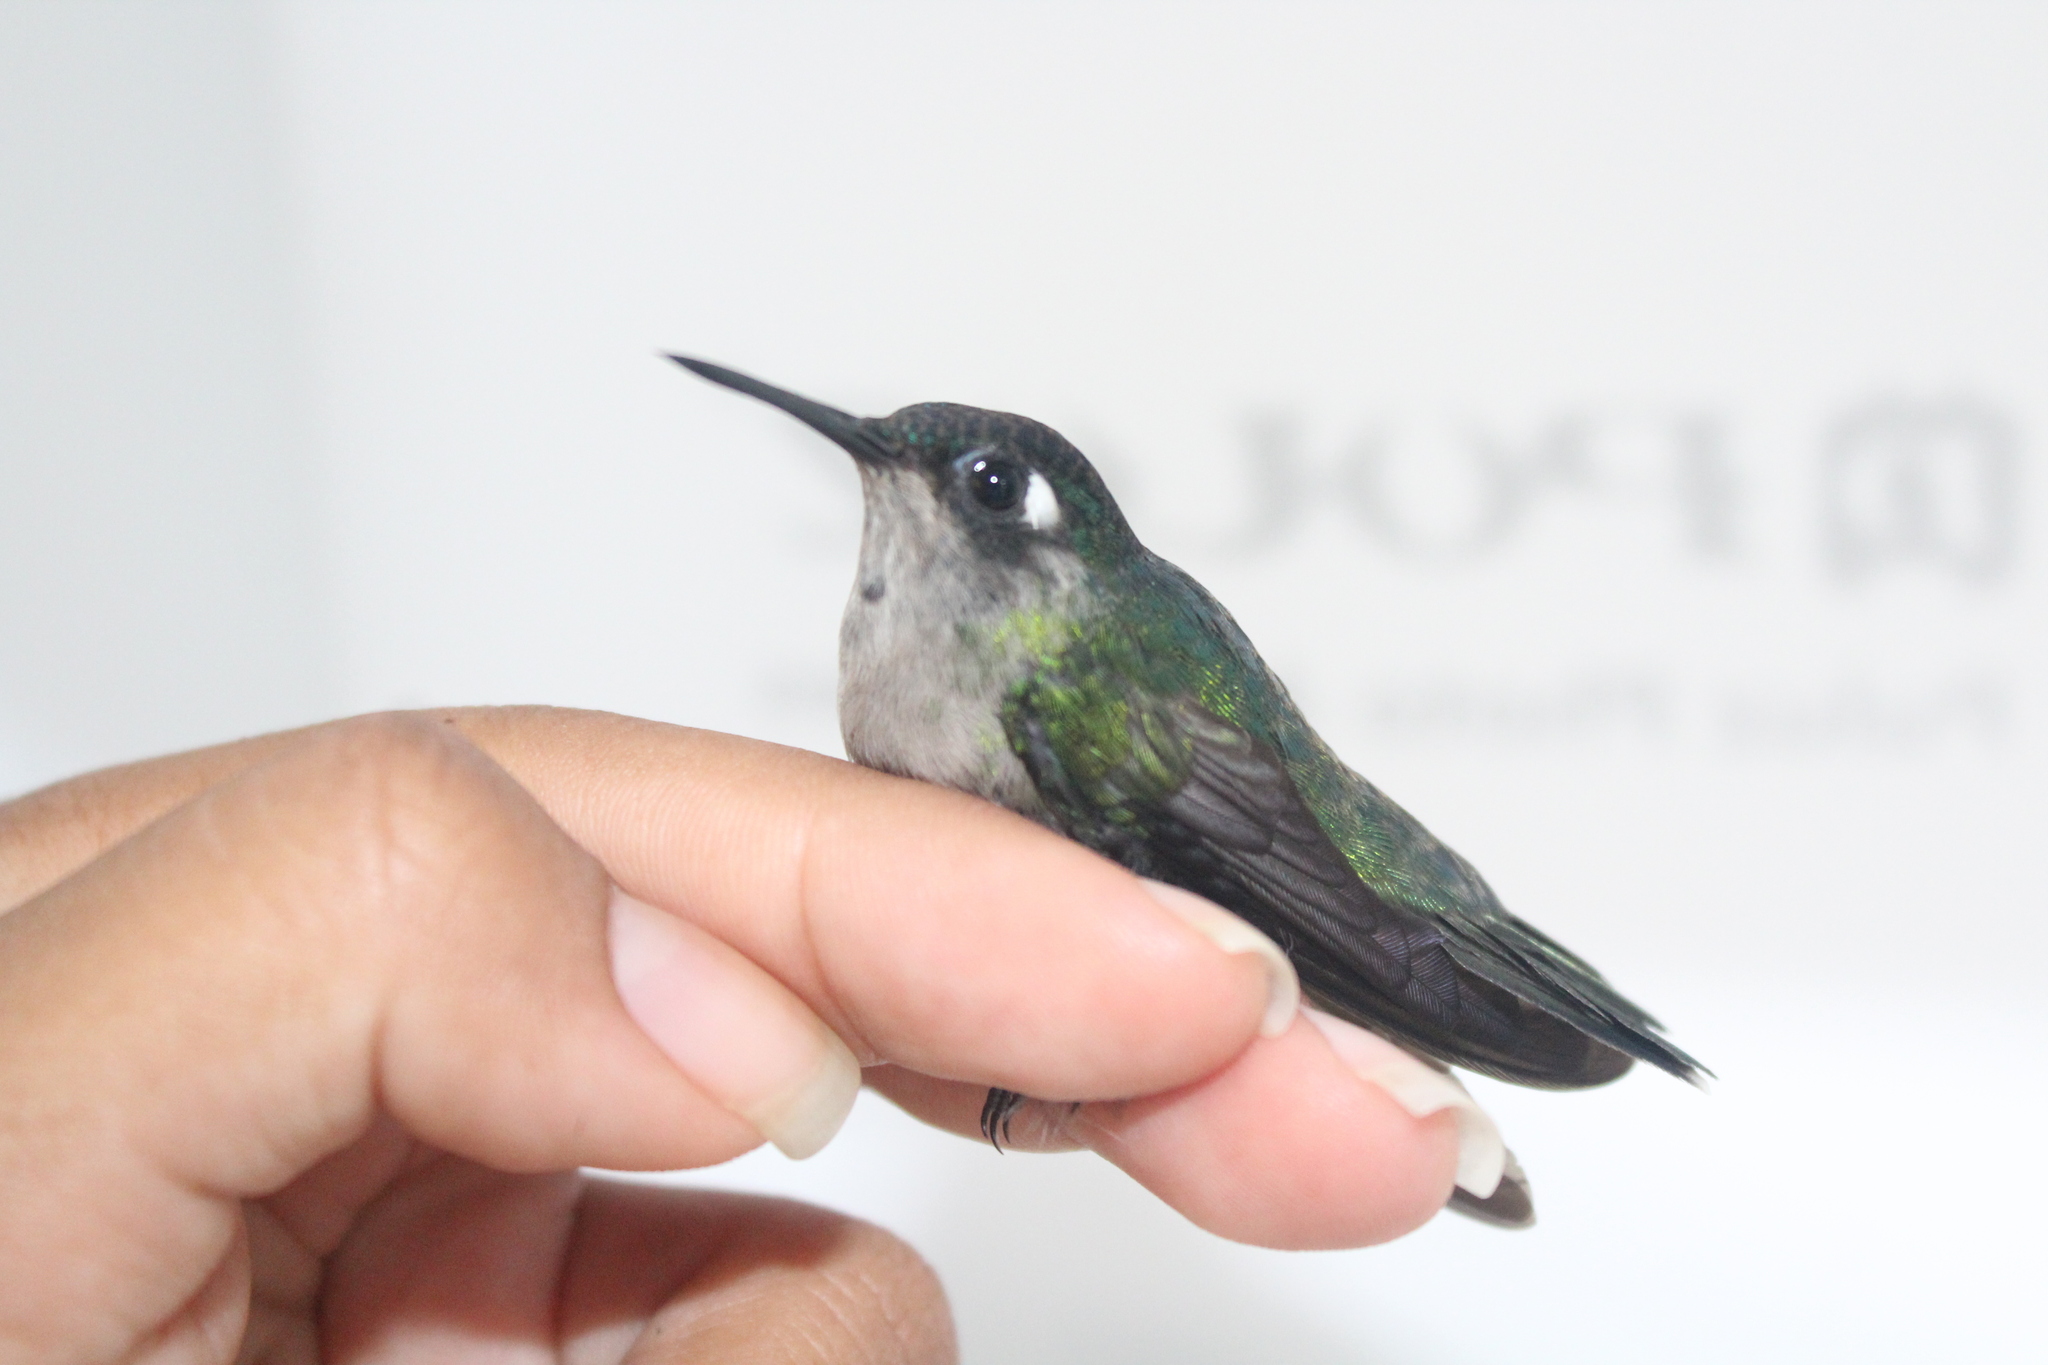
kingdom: Animalia
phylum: Chordata
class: Aves
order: Apodiformes
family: Trochilidae
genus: Klais
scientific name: Klais guimeti
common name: Violet-headed hummingbird
